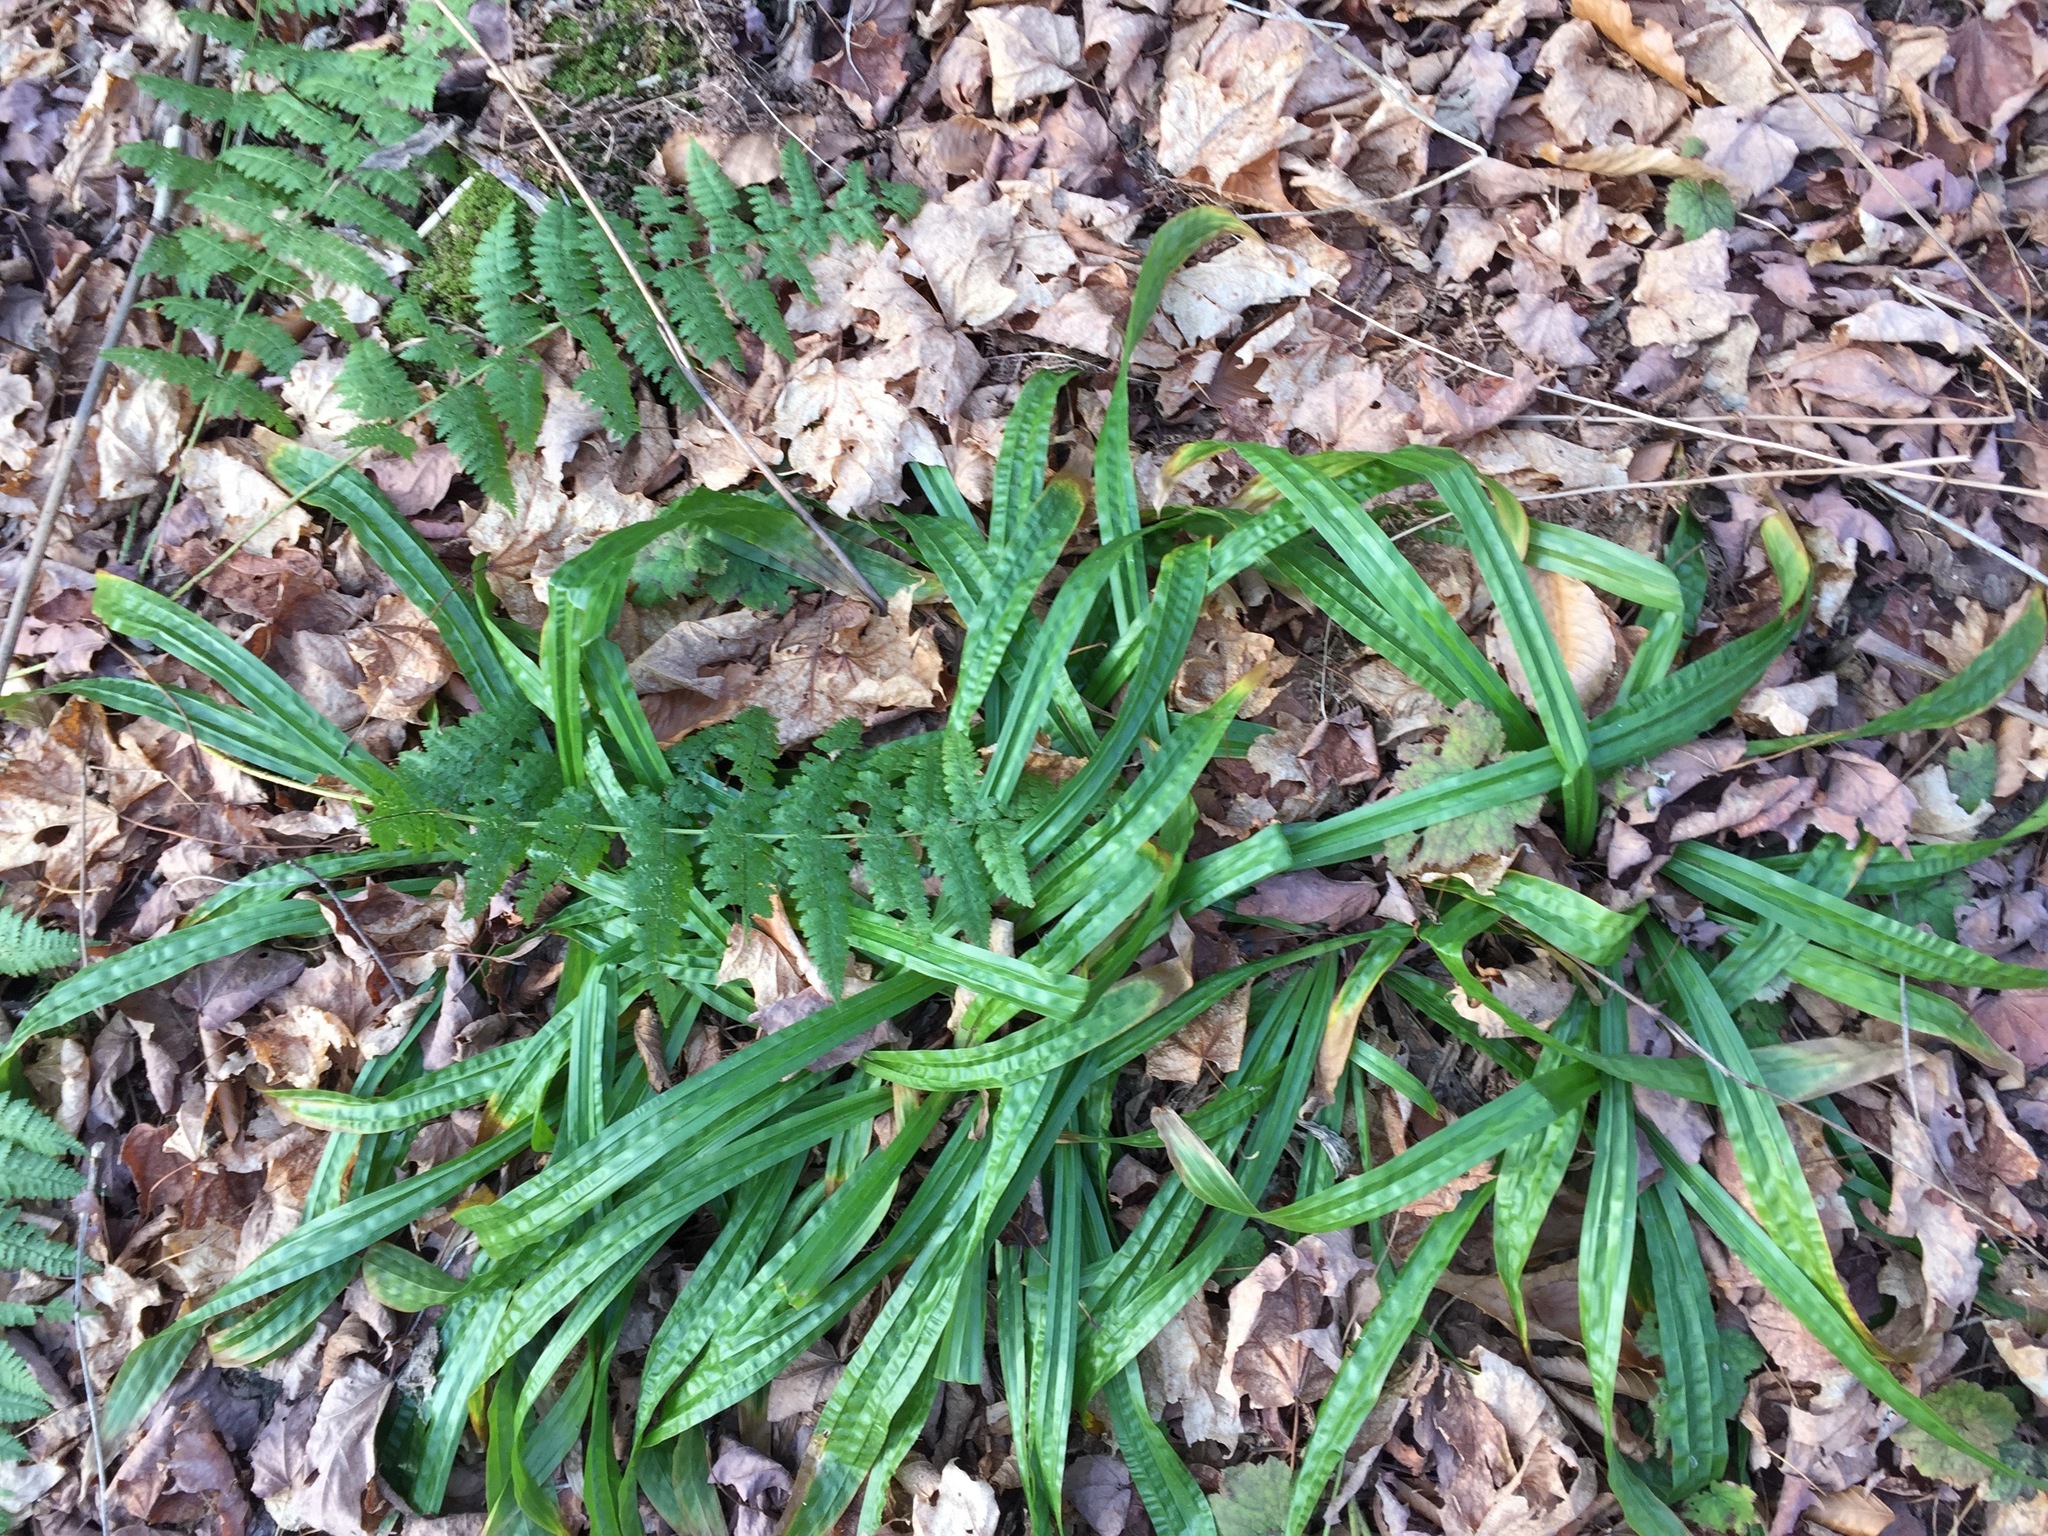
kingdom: Plantae
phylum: Tracheophyta
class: Liliopsida
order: Poales
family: Cyperaceae
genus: Carex
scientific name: Carex plantaginea
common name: Plantain-leaved sedge
